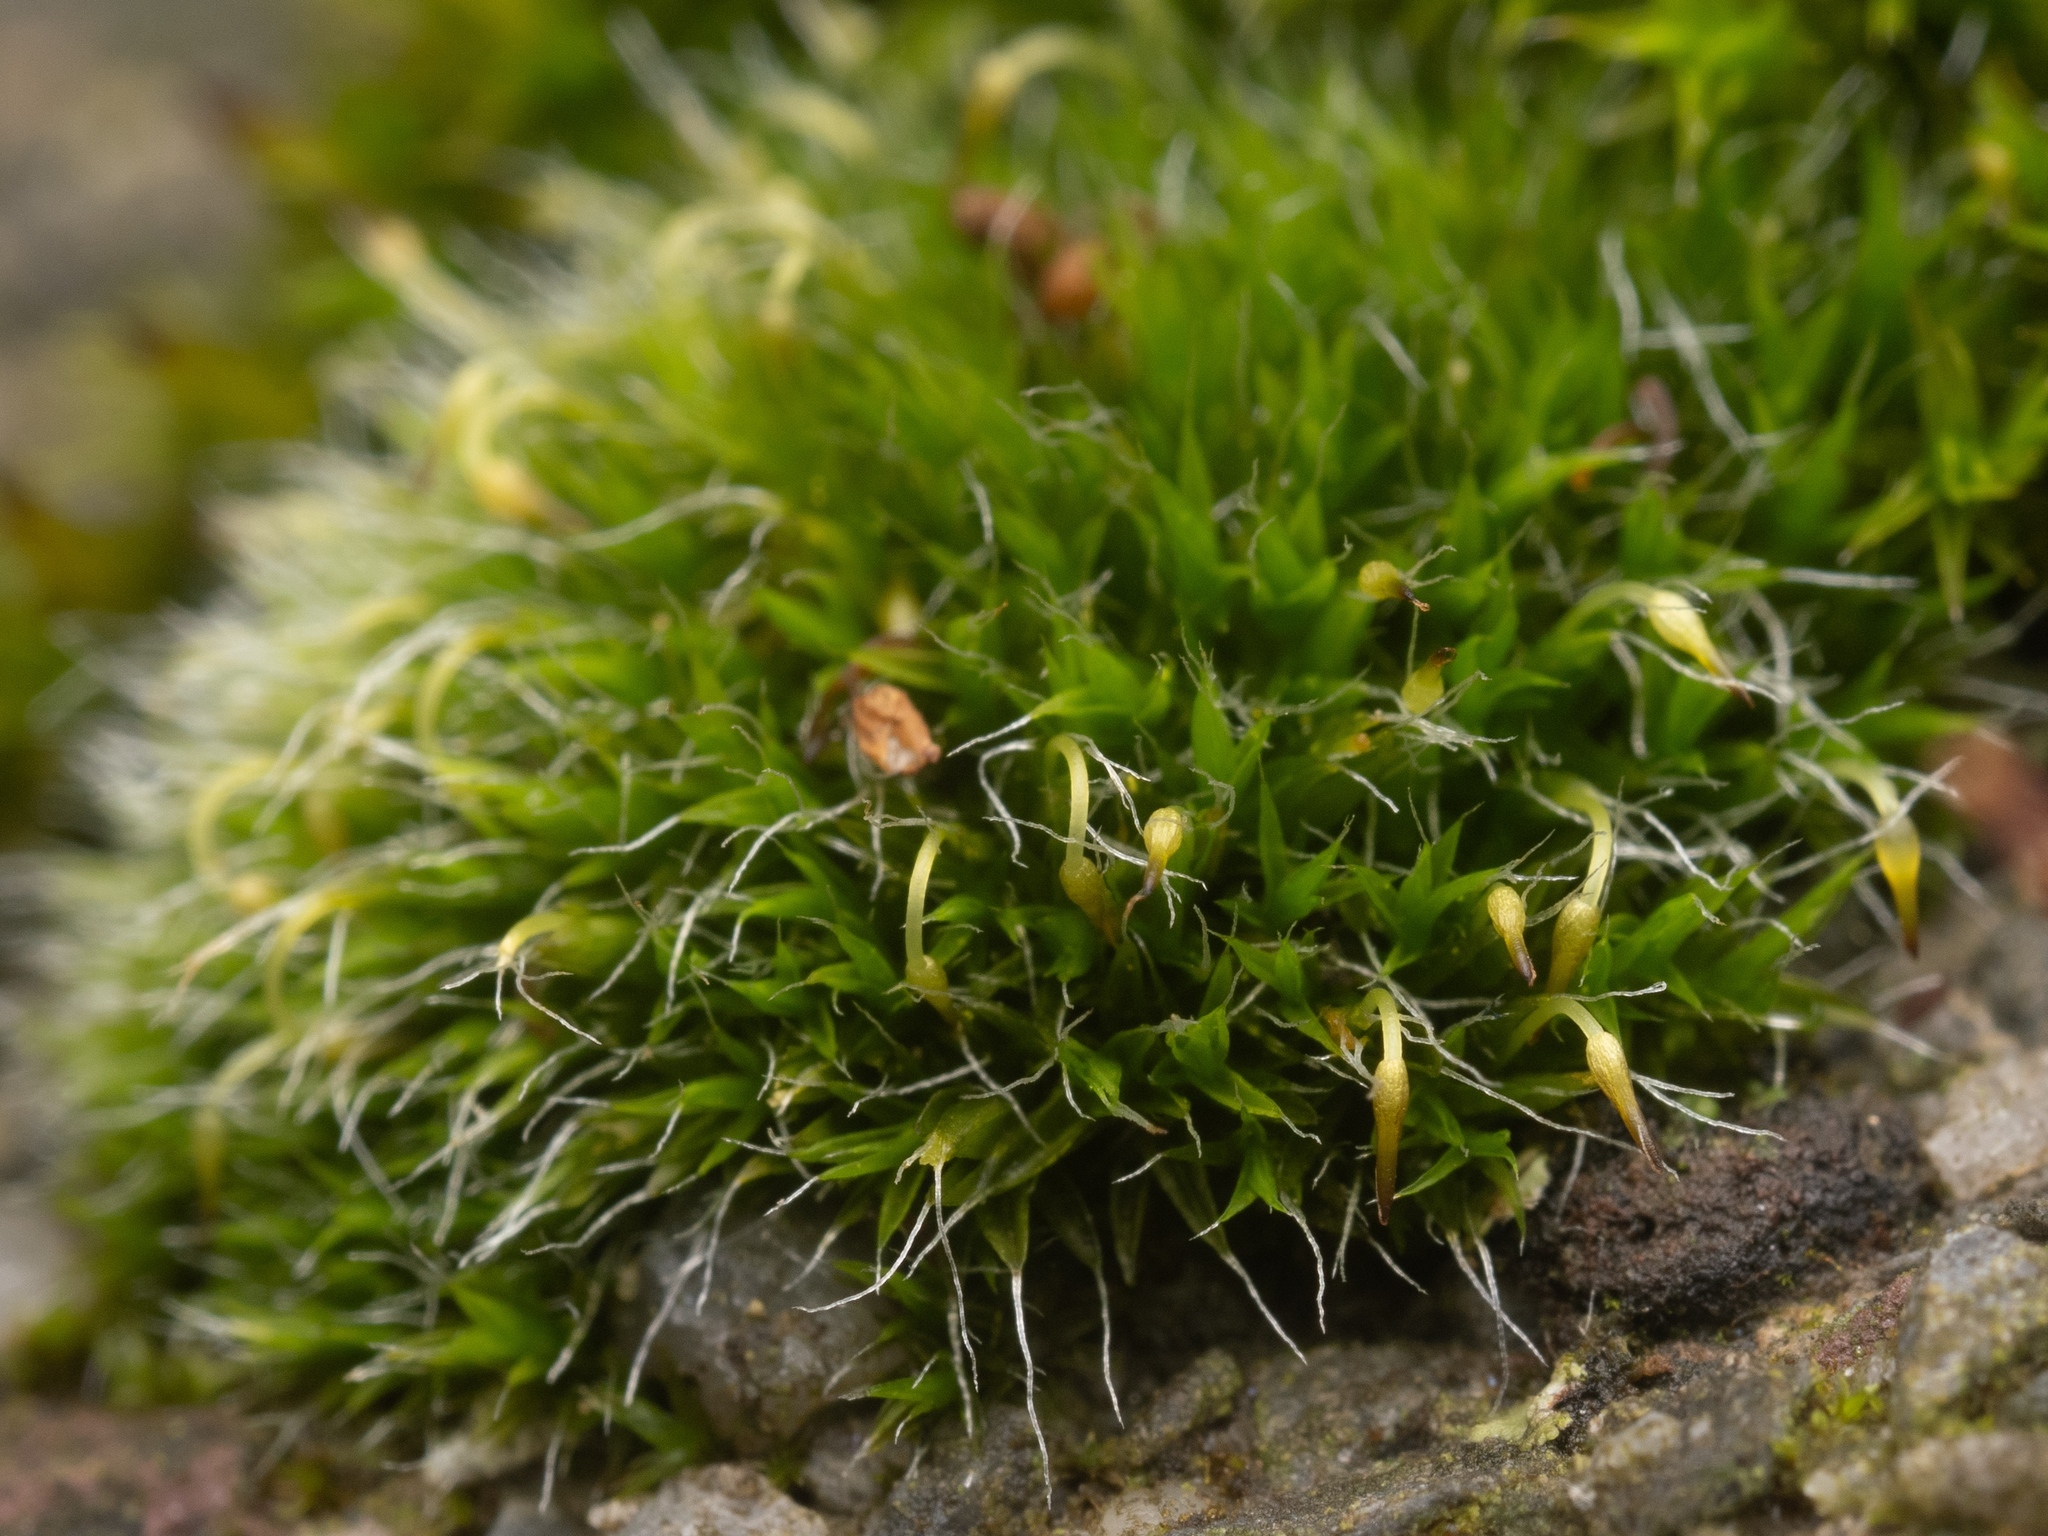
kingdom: Plantae
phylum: Bryophyta
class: Bryopsida
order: Grimmiales
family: Grimmiaceae
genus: Grimmia
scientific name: Grimmia pulvinata
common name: Grey-cushioned grimmia
